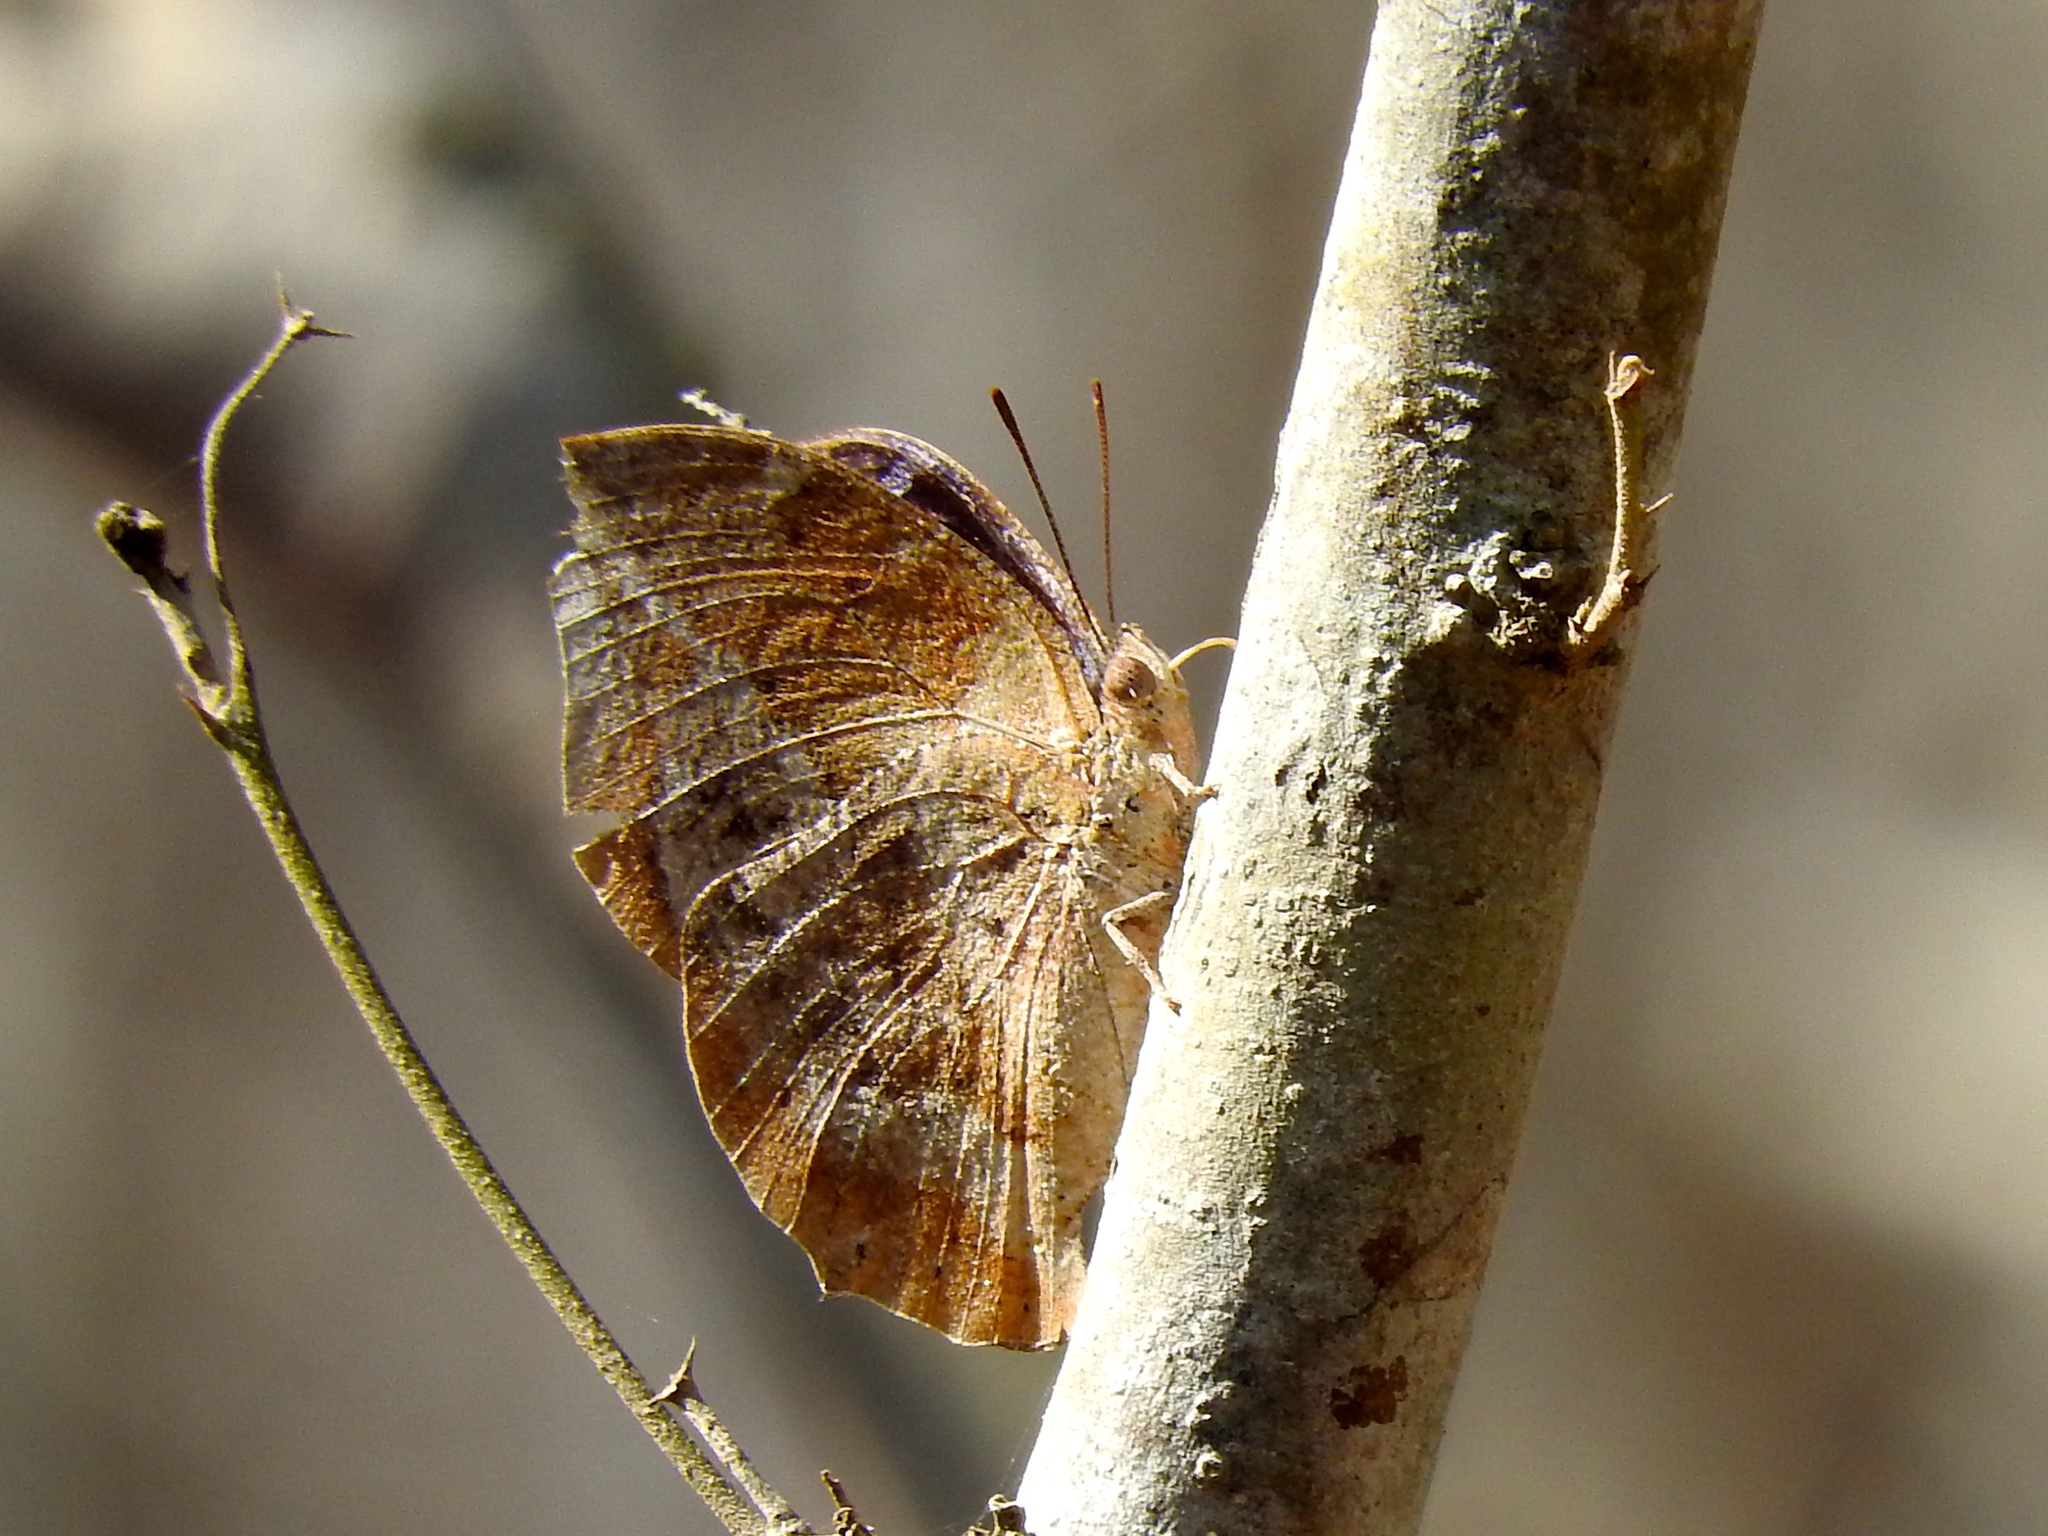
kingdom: Animalia
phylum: Arthropoda
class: Insecta
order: Lepidoptera
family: Nymphalidae
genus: Memphis
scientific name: Memphis forreri
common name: Forrer's leafwing
